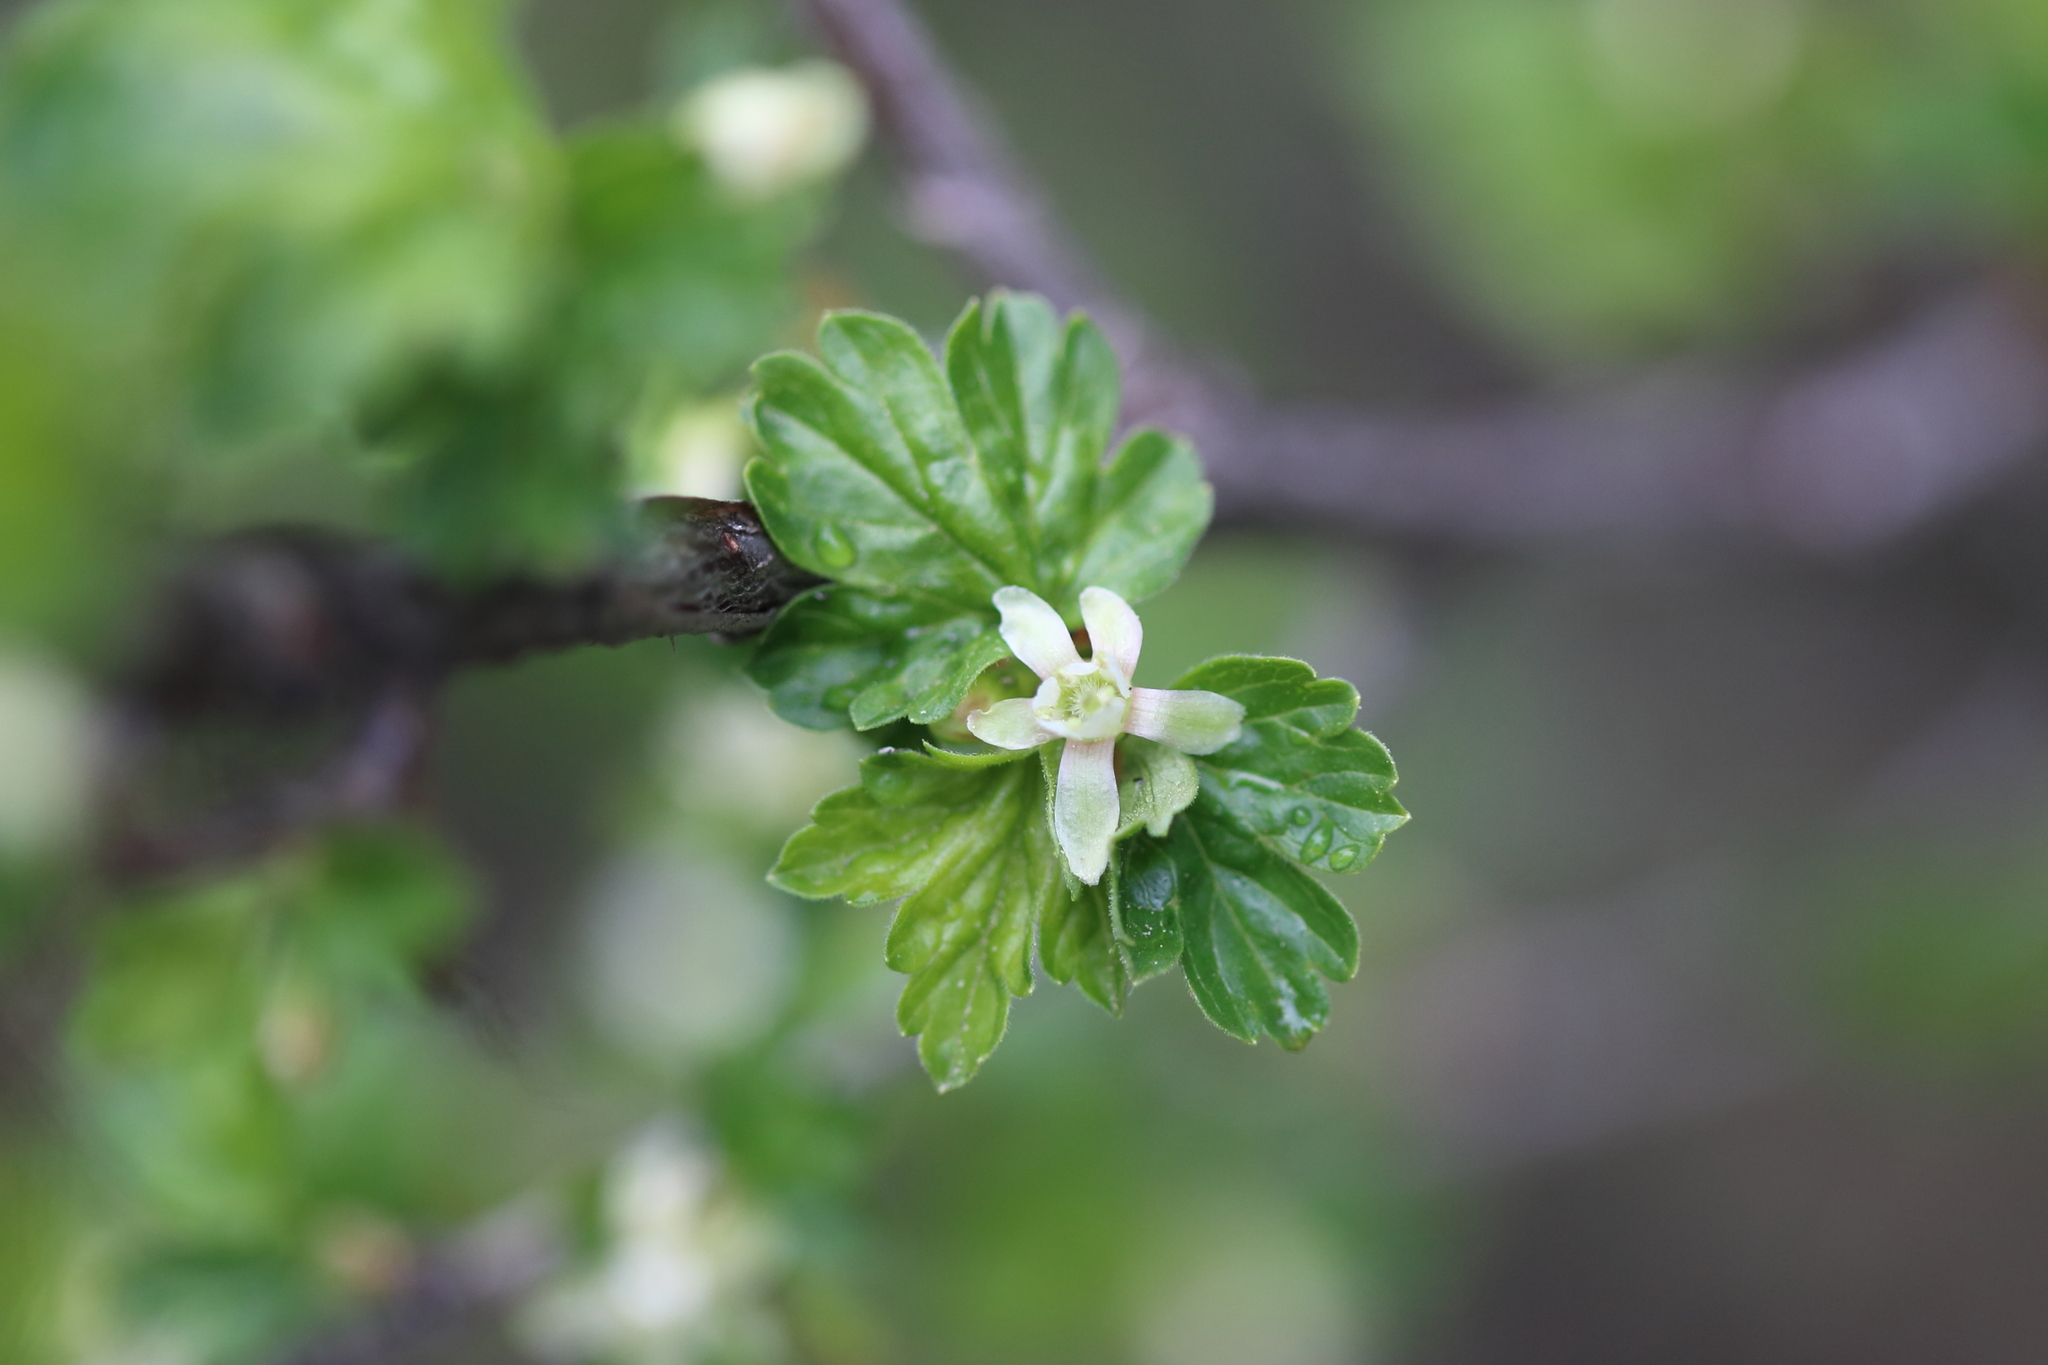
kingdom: Plantae
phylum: Tracheophyta
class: Magnoliopsida
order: Saxifragales
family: Grossulariaceae
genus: Ribes
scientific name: Ribes oxyacanthoides
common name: Northern gooseberry
